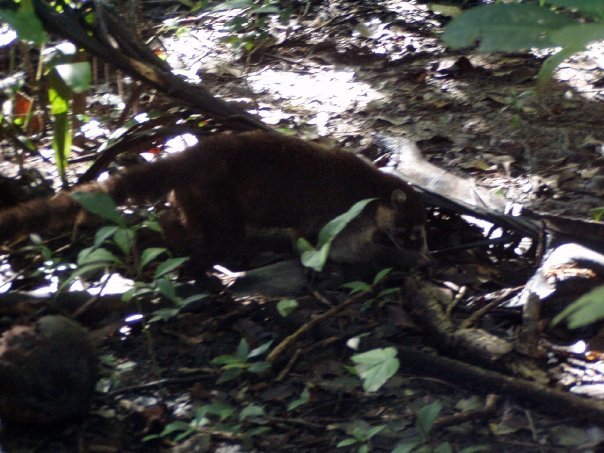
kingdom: Animalia
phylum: Chordata
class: Mammalia
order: Carnivora
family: Procyonidae
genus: Nasua
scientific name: Nasua narica
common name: White-nosed coati
